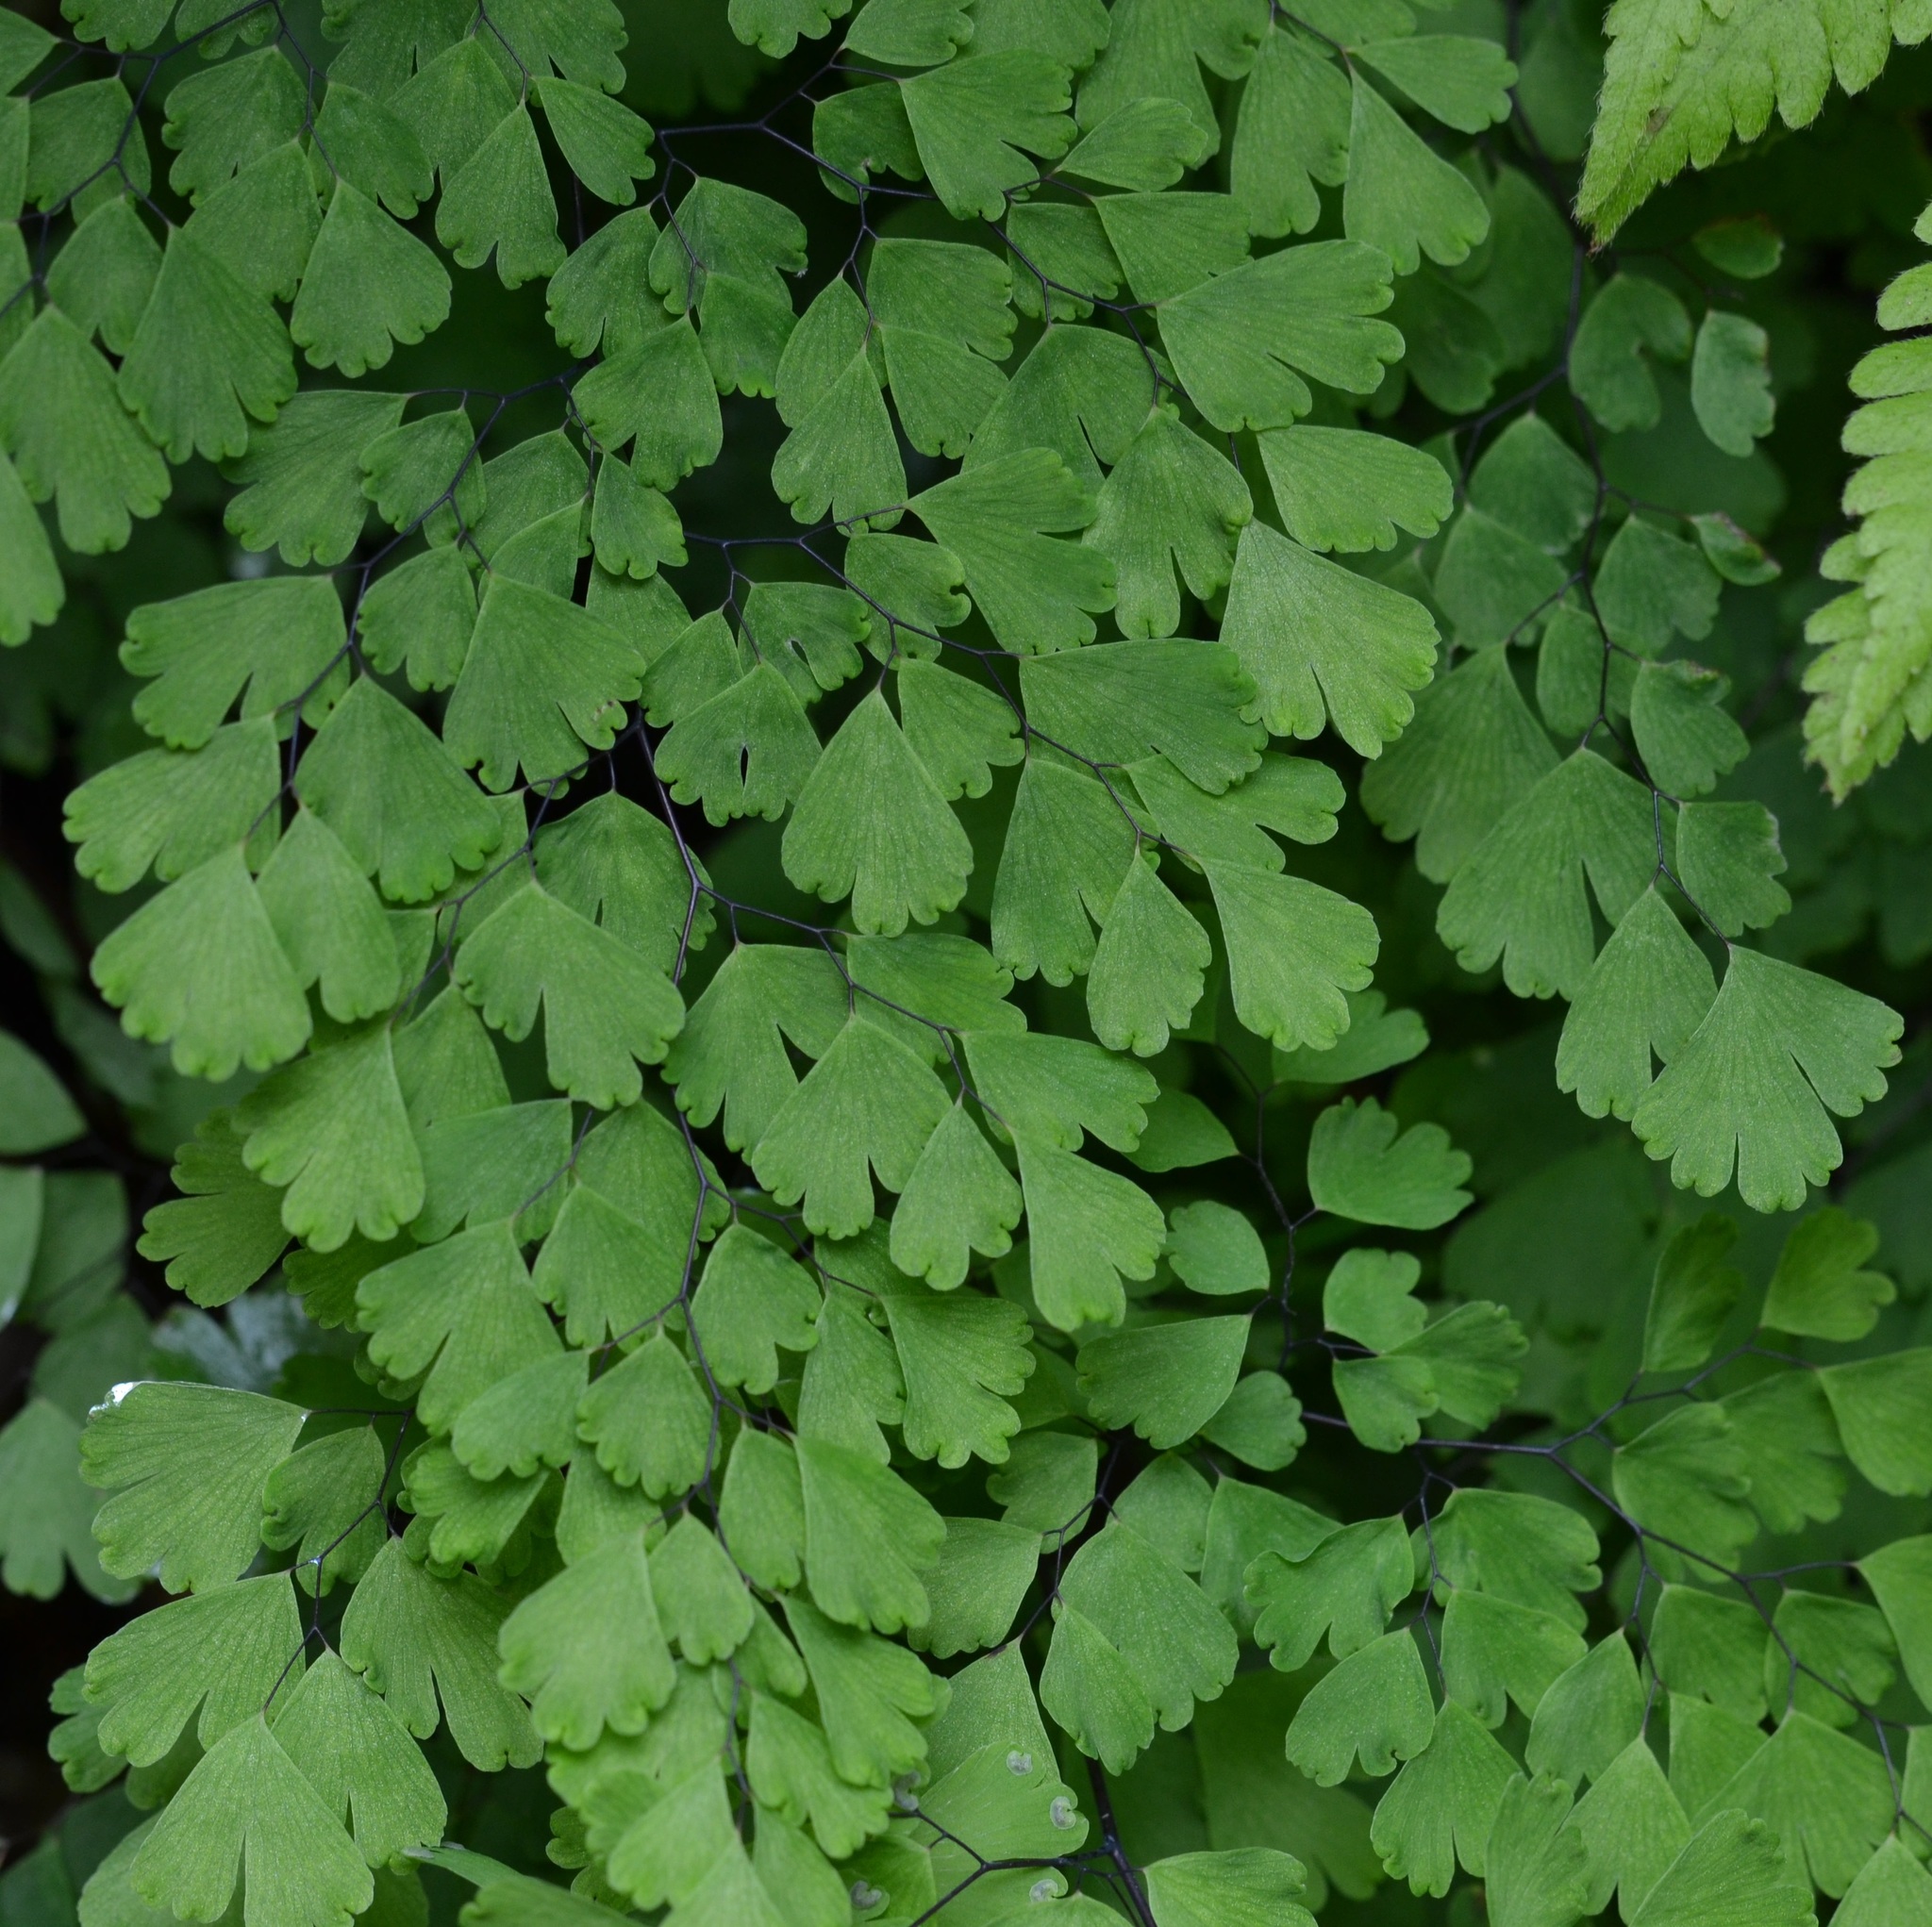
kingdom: Plantae
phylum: Tracheophyta
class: Polypodiopsida
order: Polypodiales
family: Pteridaceae
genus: Adiantum
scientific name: Adiantum raddianum
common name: Delta maidenhair fern
